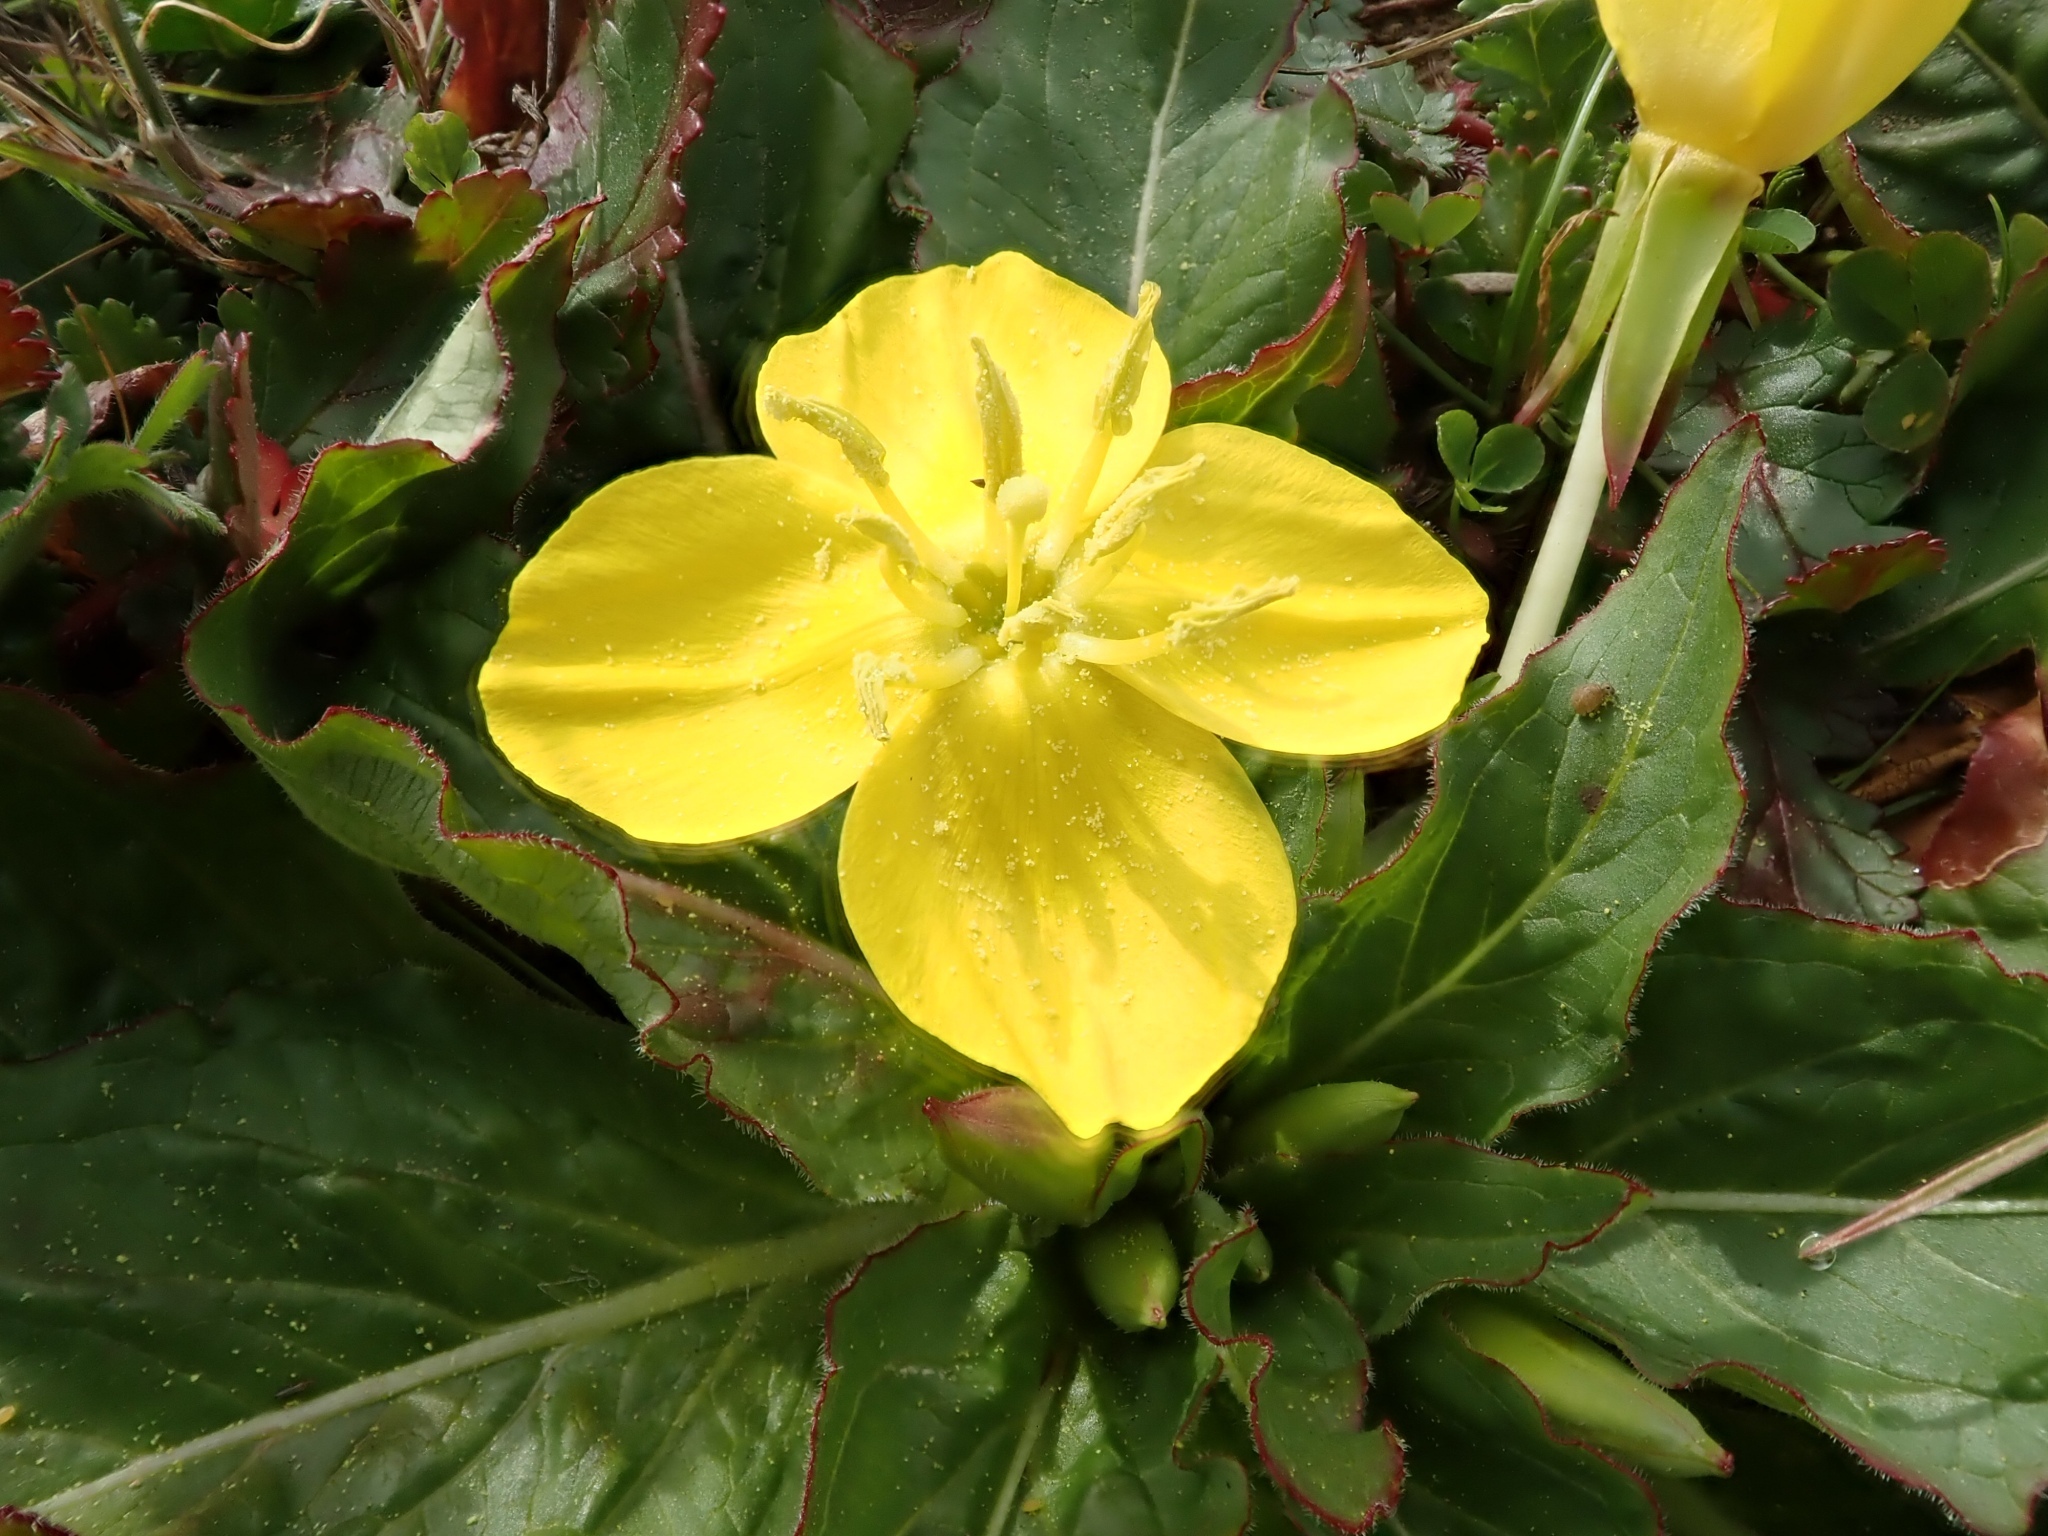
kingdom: Plantae
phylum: Tracheophyta
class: Magnoliopsida
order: Myrtales
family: Onagraceae
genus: Taraxia
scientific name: Taraxia ovata
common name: Goldeneggs
